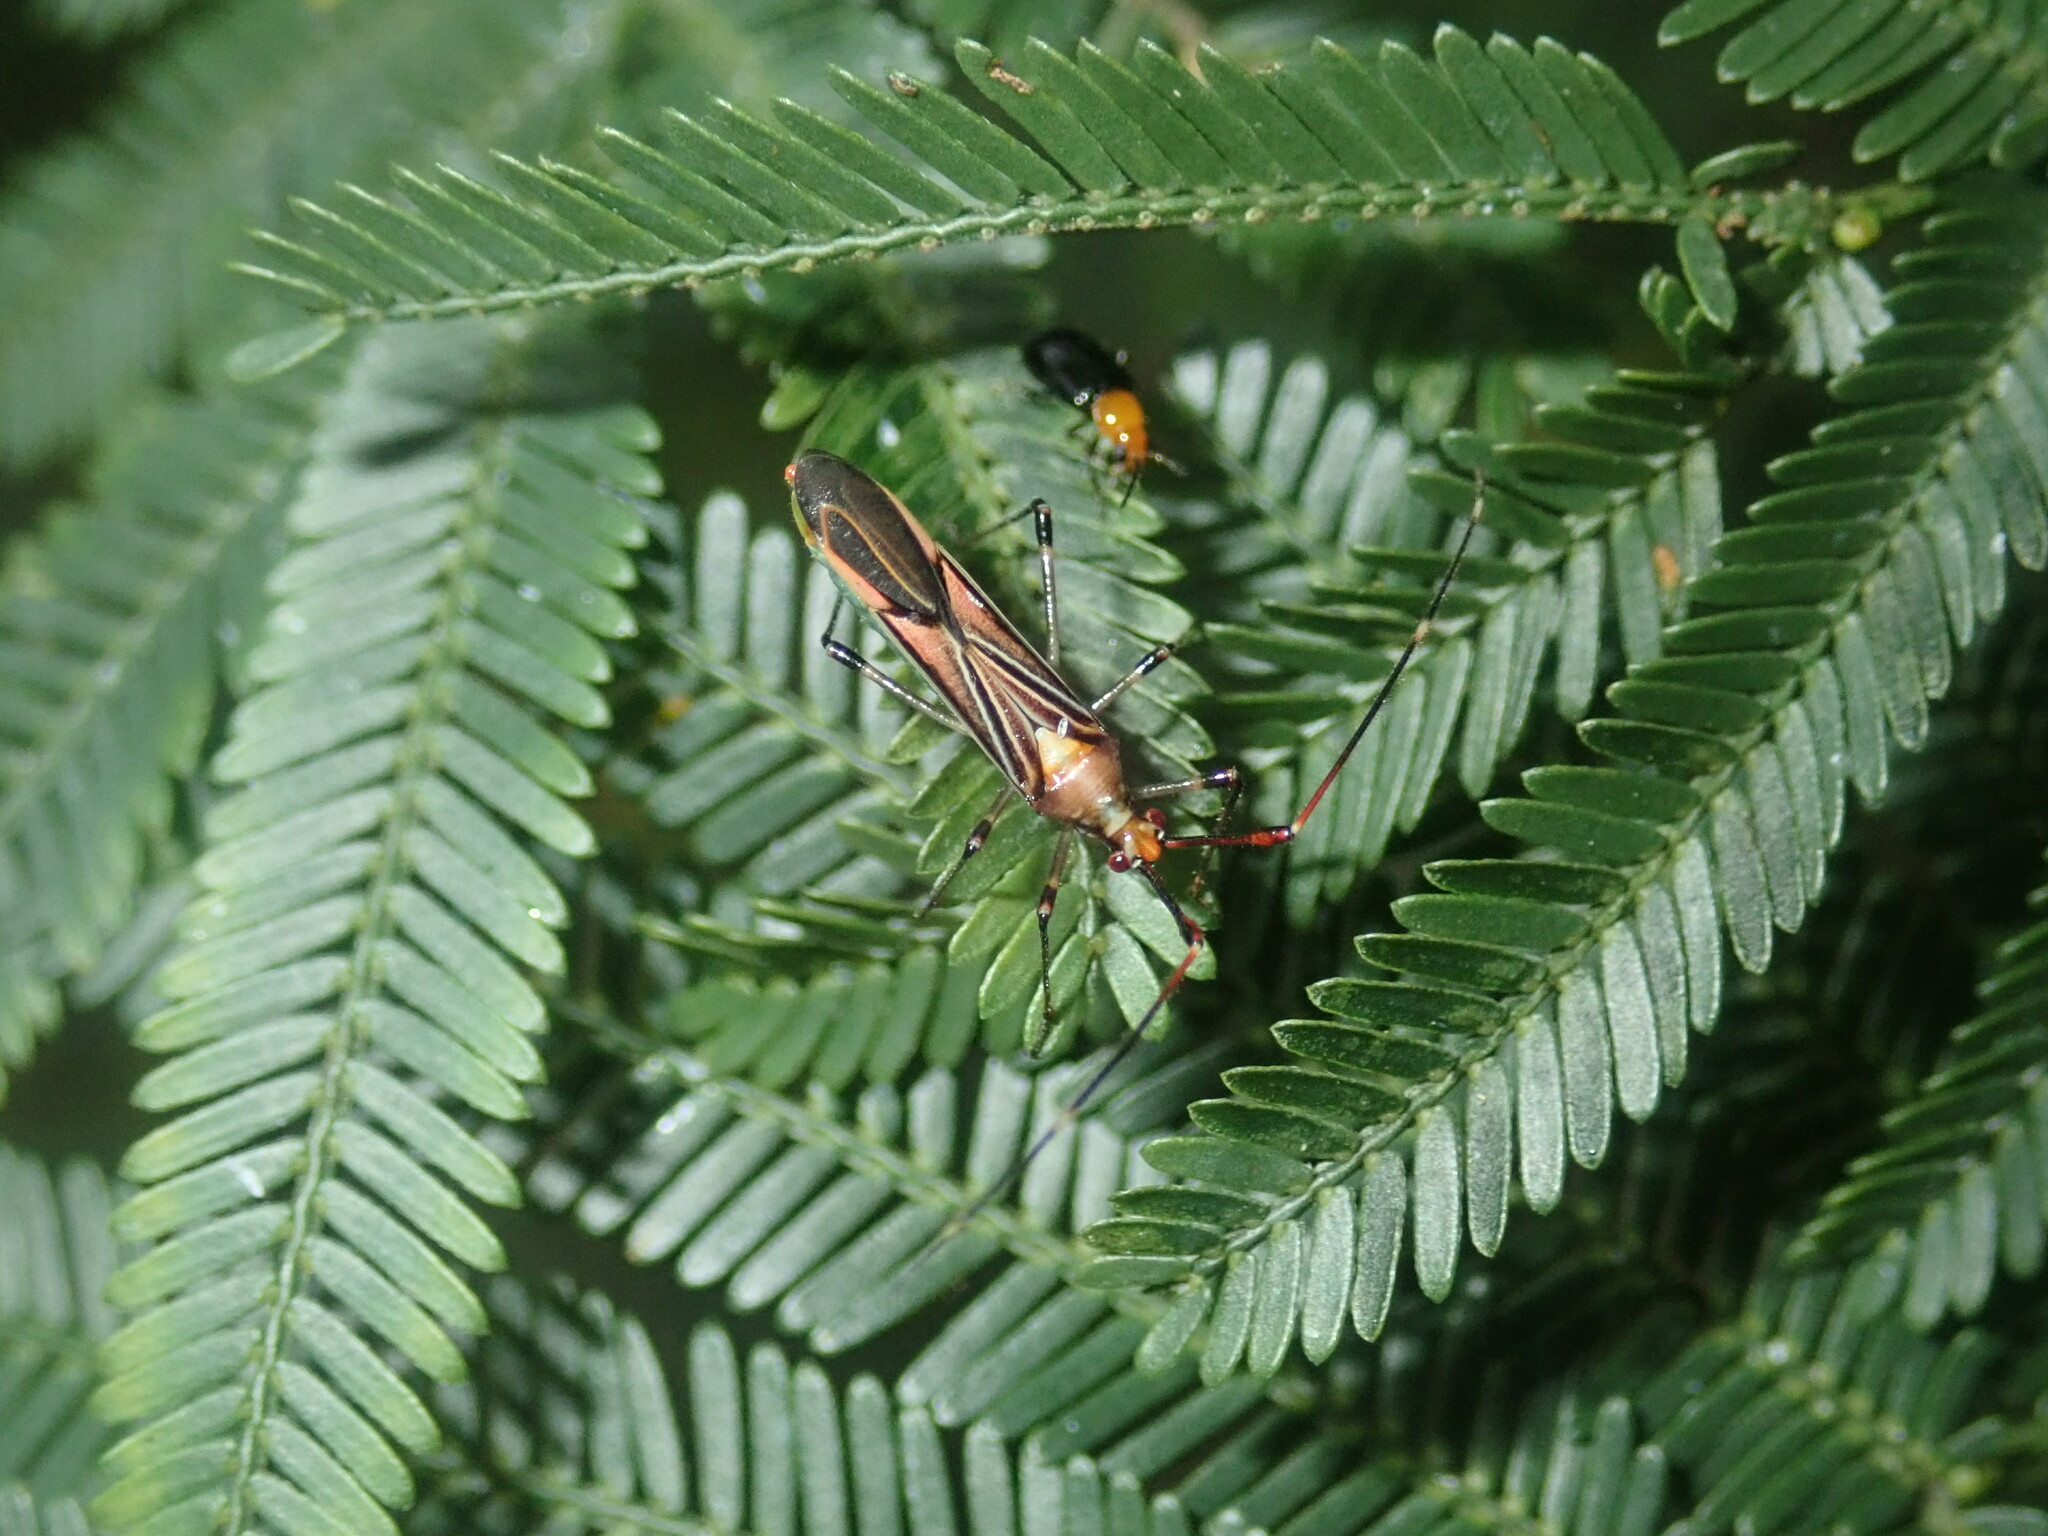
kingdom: Animalia
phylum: Arthropoda
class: Insecta
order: Hemiptera
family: Miridae
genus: Rayieria
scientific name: Rayieria
